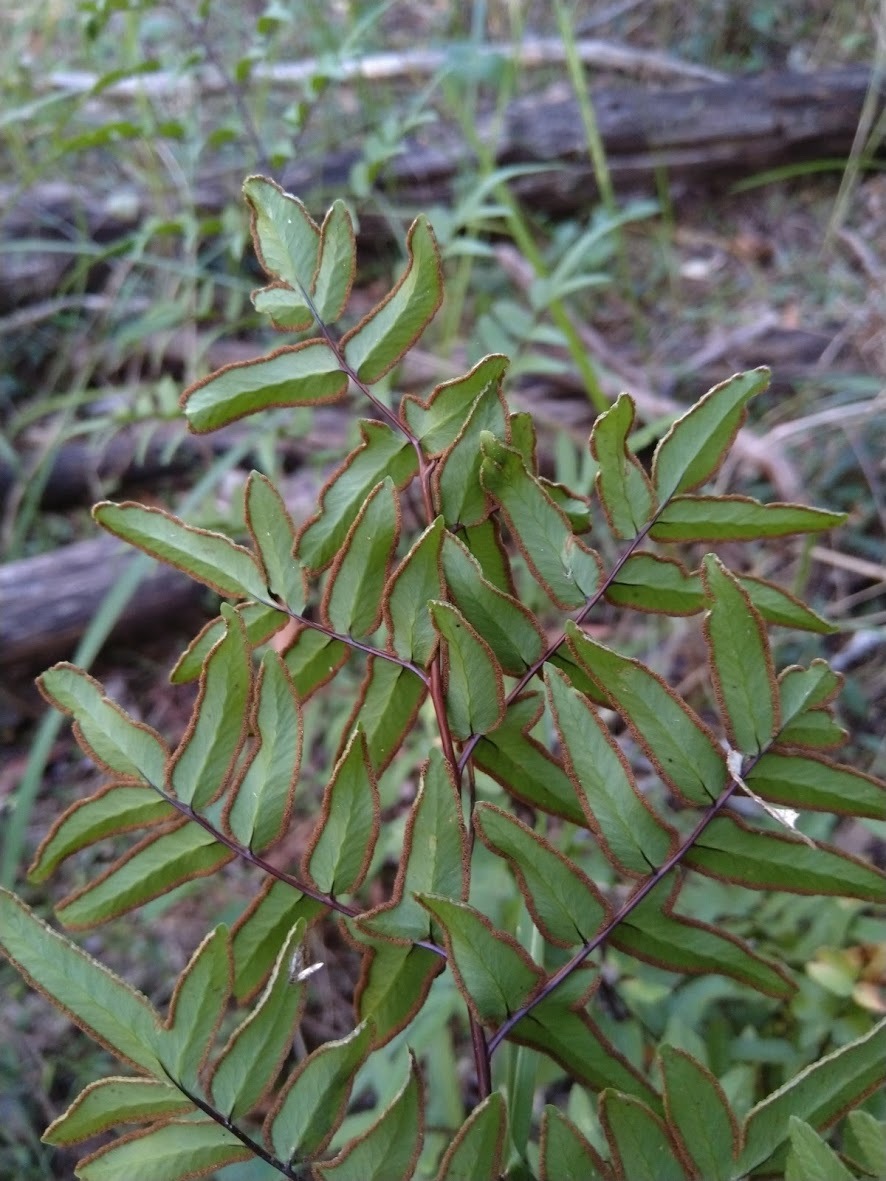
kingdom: Plantae
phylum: Tracheophyta
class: Polypodiopsida
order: Polypodiales
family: Pteridaceae
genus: Cheilanthes
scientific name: Cheilanthes viridis
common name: Green cliffbrake
